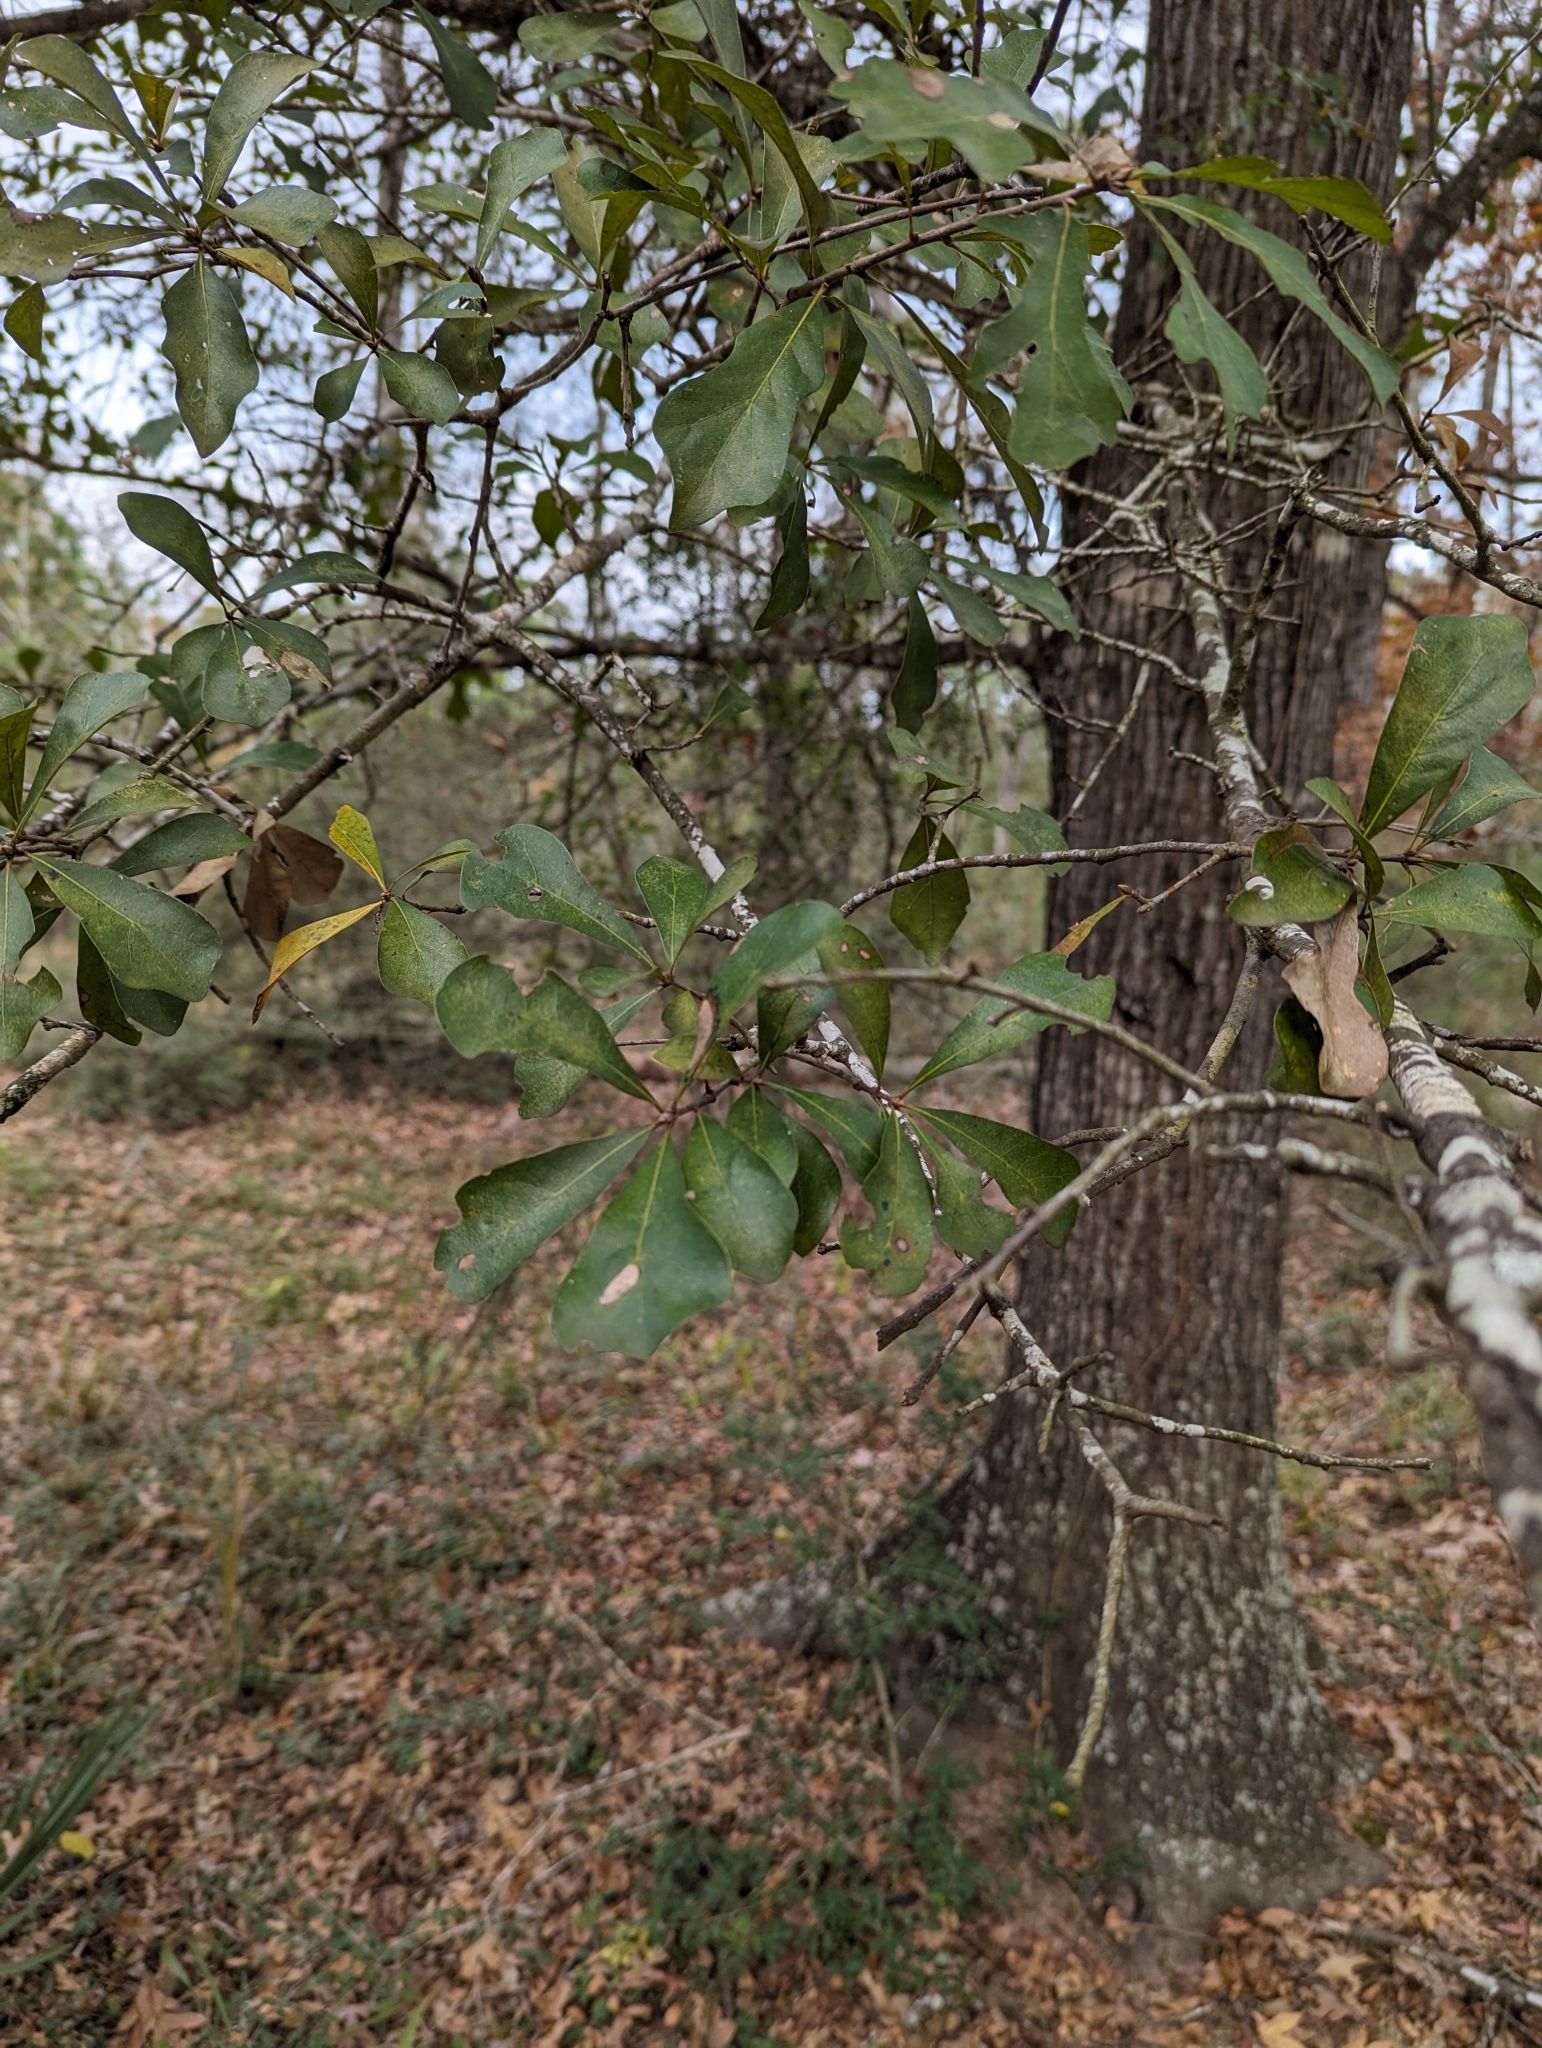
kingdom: Plantae
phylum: Tracheophyta
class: Magnoliopsida
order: Fagales
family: Fagaceae
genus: Quercus
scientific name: Quercus nigra
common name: Water oak
